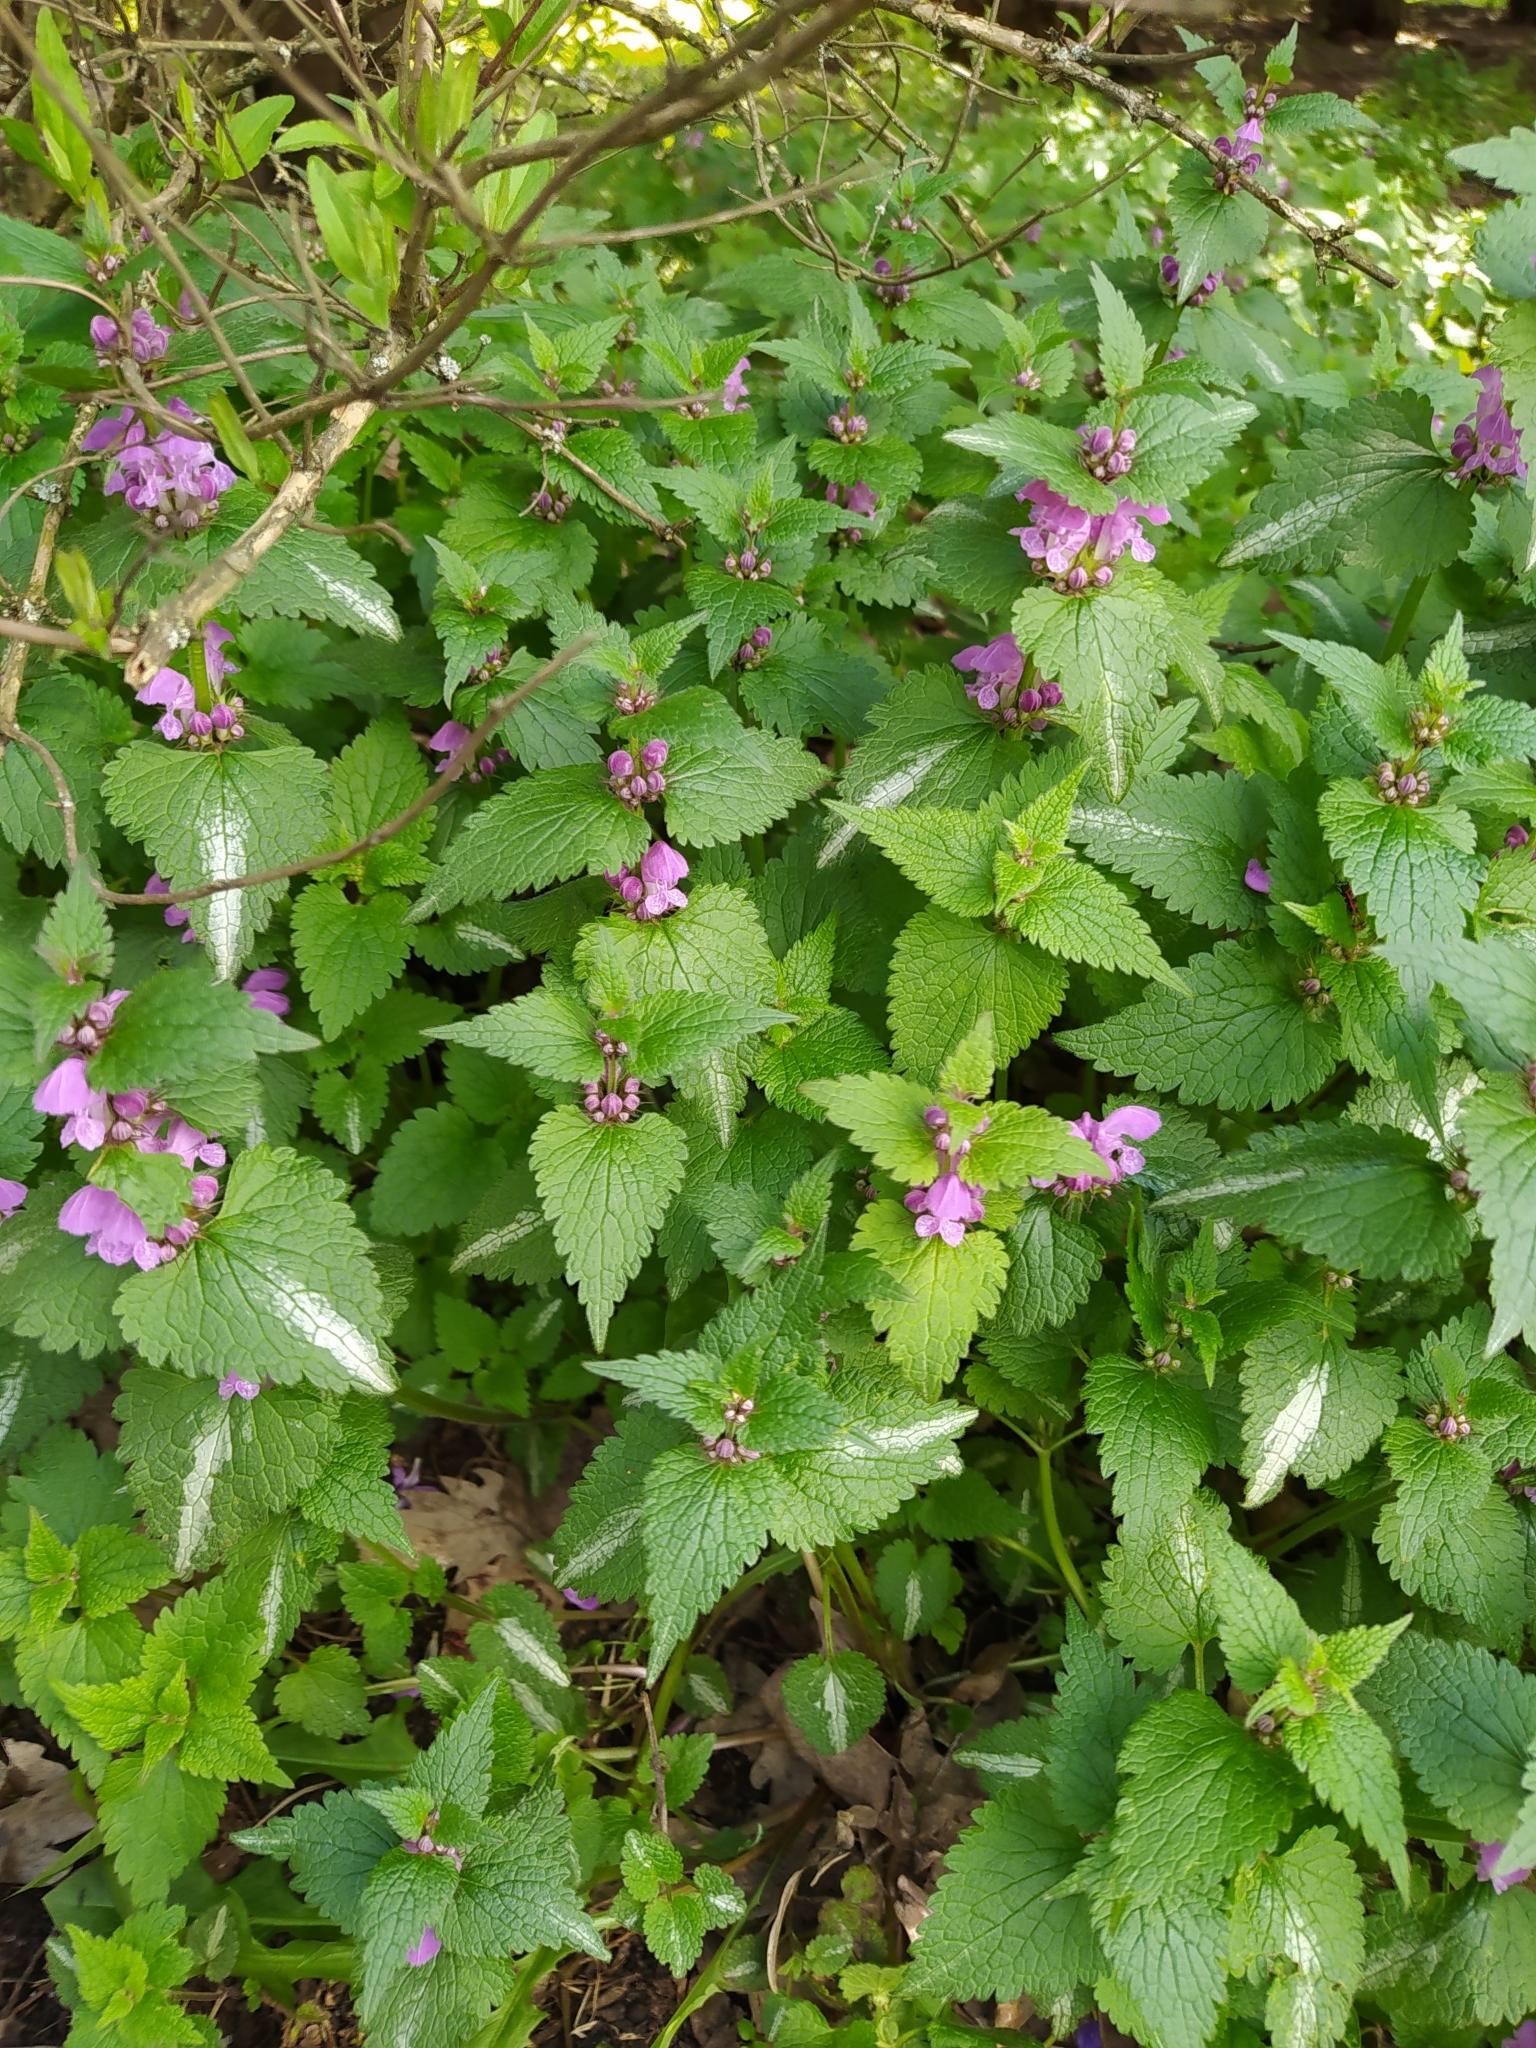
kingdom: Plantae
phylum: Tracheophyta
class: Magnoliopsida
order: Lamiales
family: Lamiaceae
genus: Lamium
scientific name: Lamium maculatum
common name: Spotted dead-nettle
